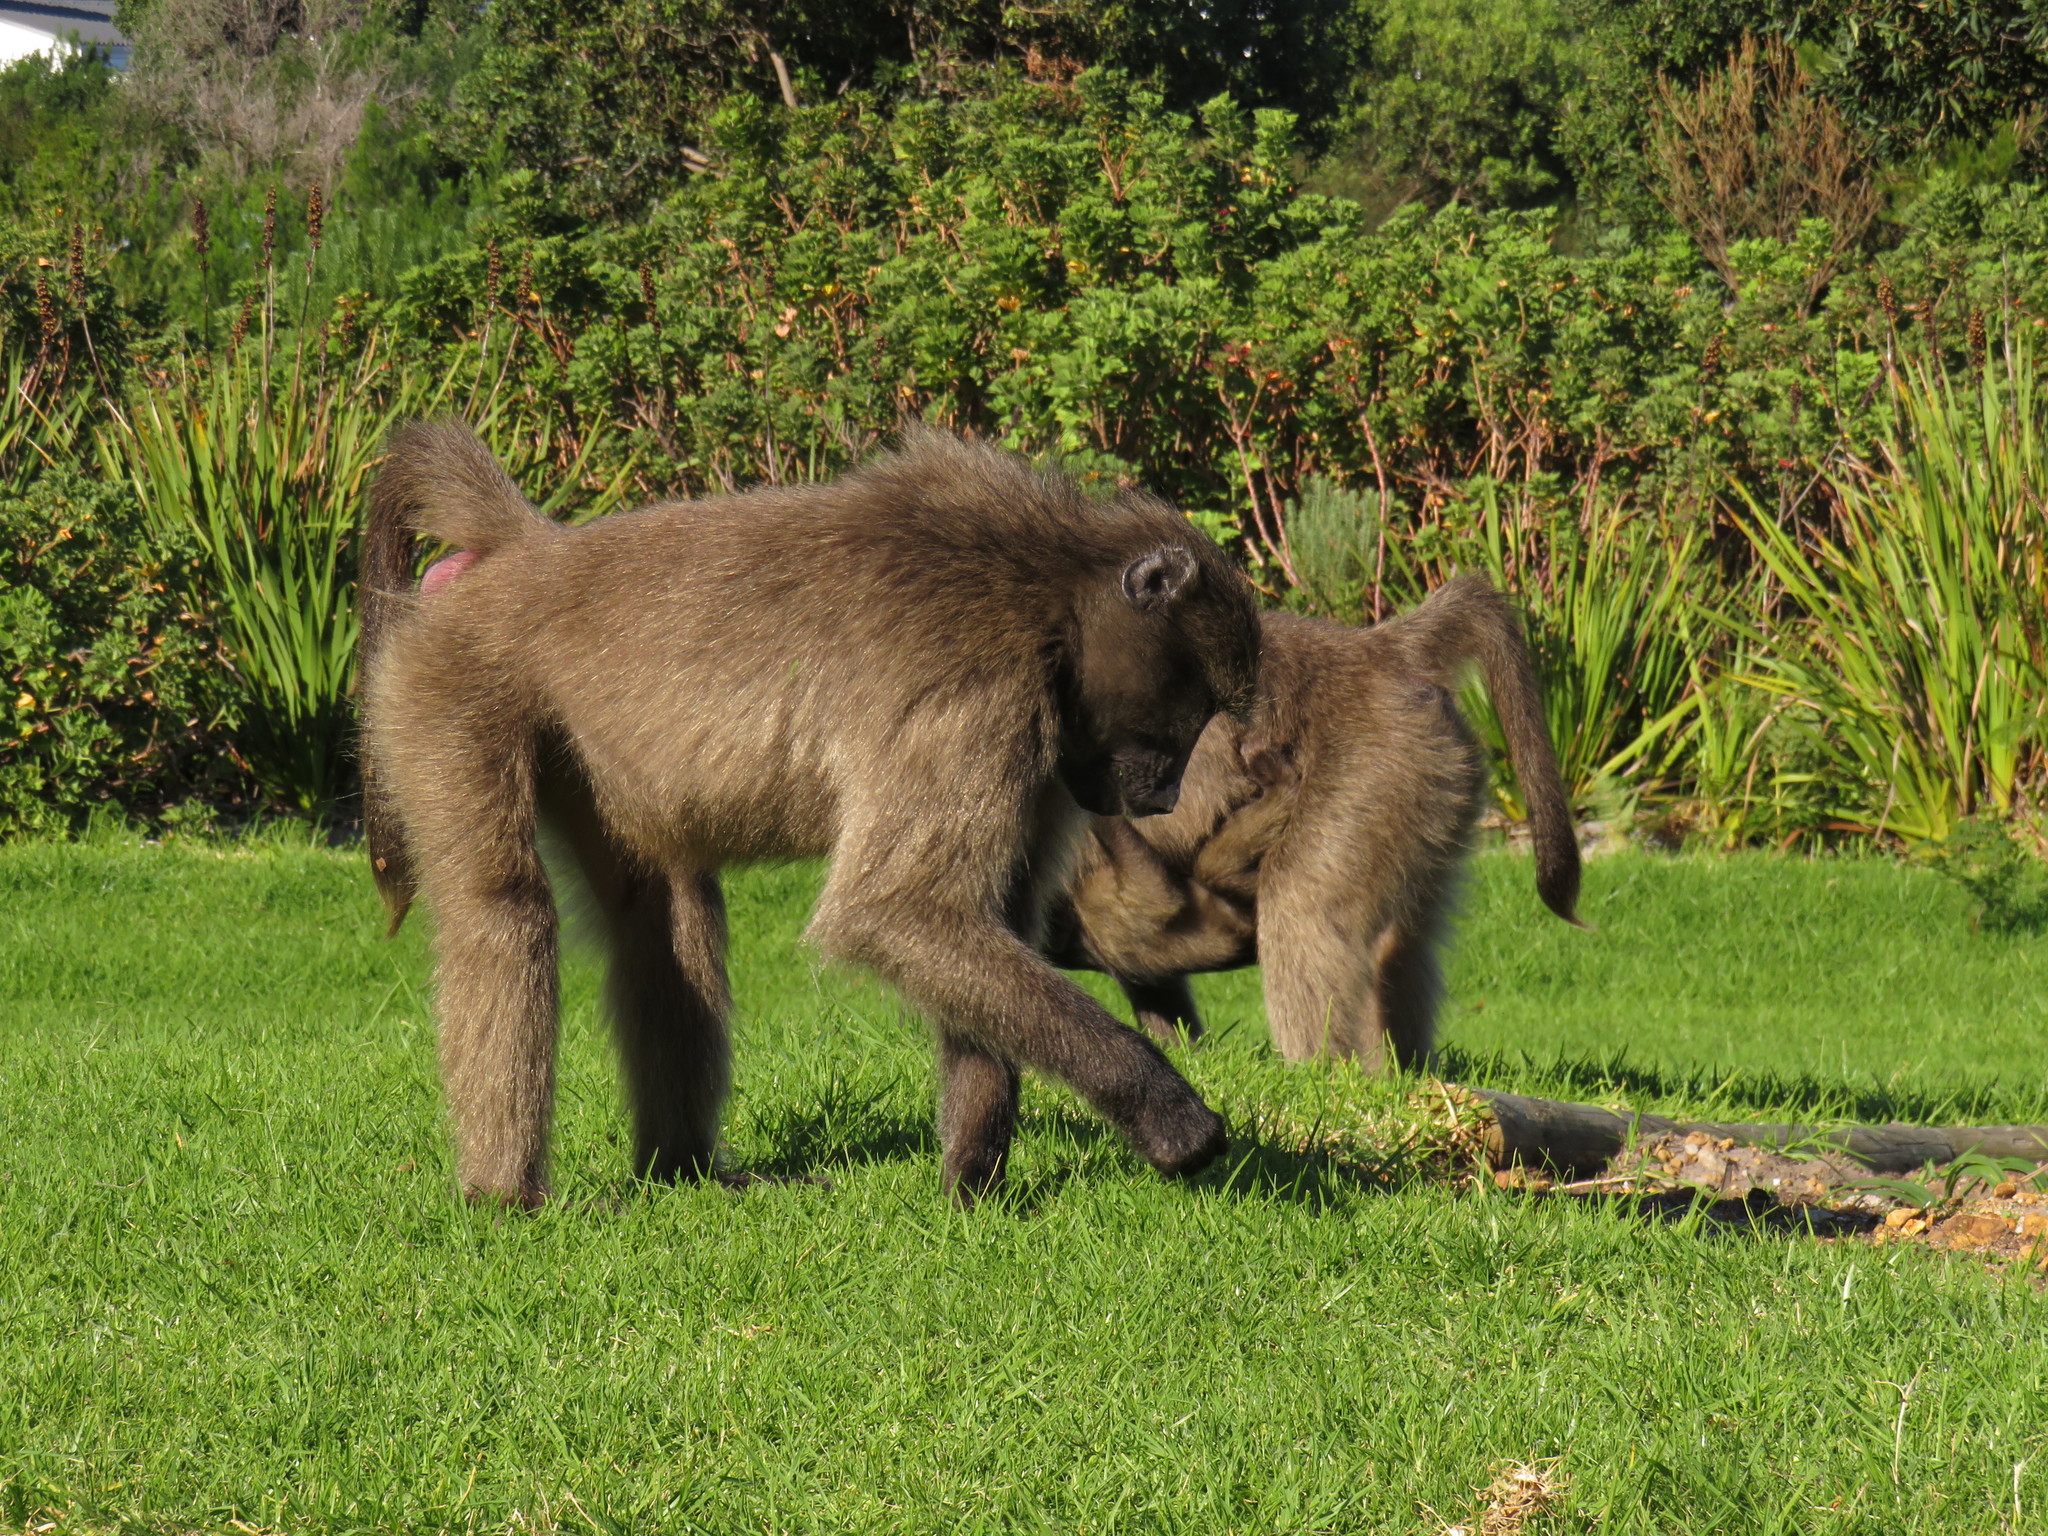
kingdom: Animalia
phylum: Chordata
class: Mammalia
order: Primates
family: Cercopithecidae
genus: Papio
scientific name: Papio ursinus
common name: Chacma baboon
